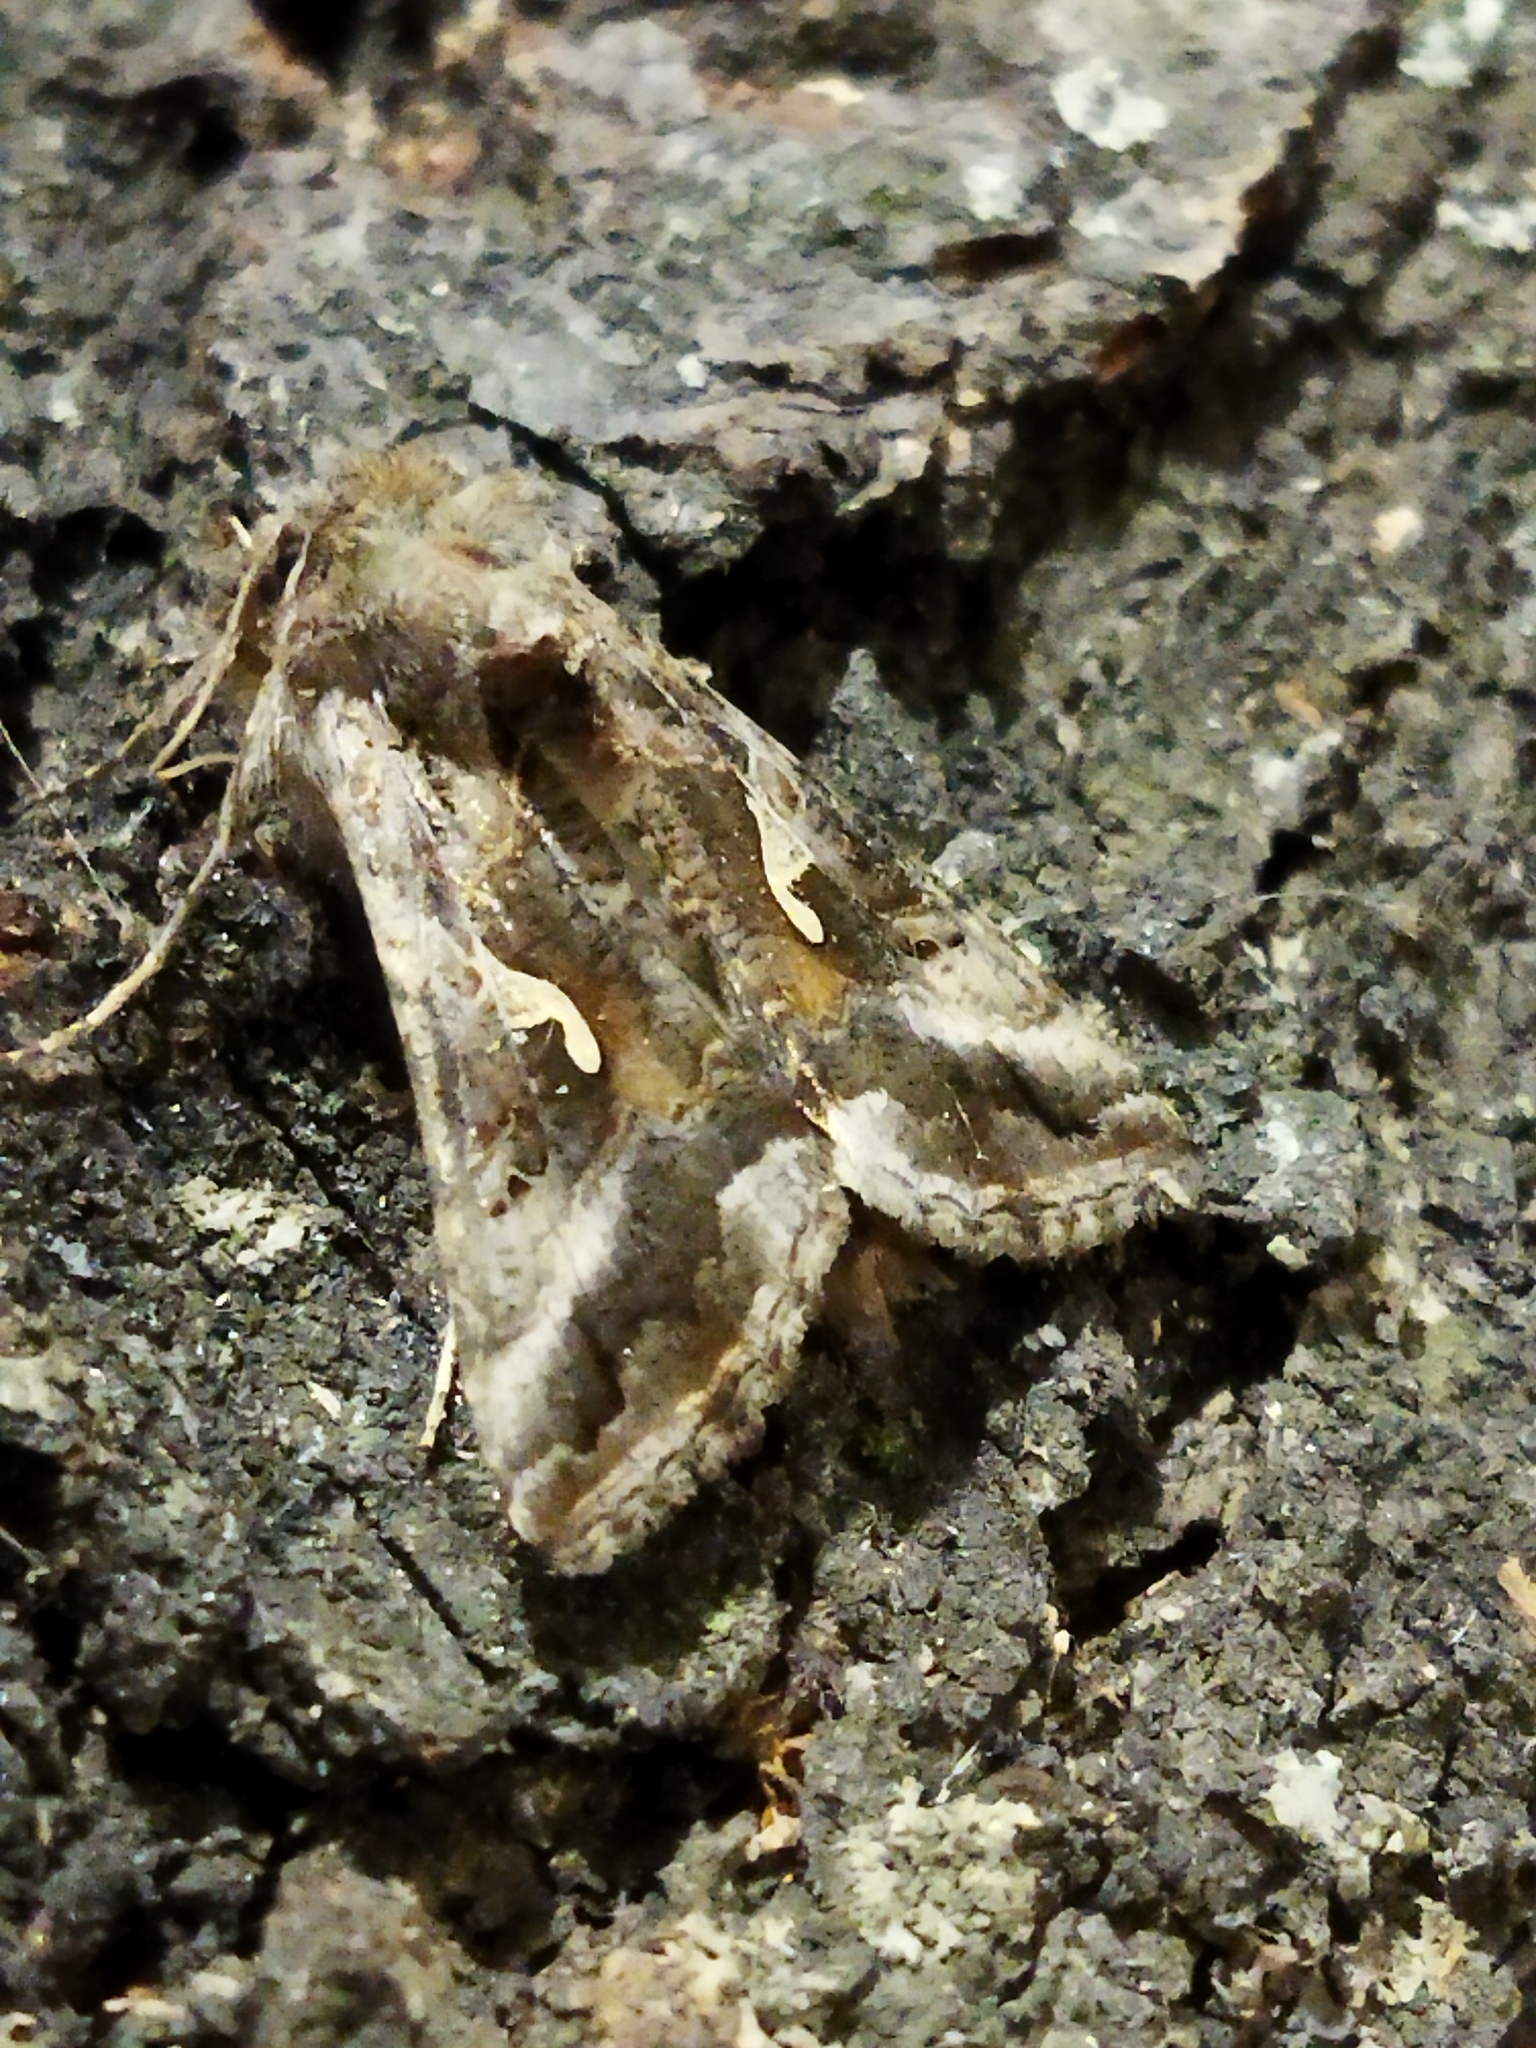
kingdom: Animalia
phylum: Arthropoda
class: Insecta
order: Lepidoptera
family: Noctuidae
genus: Autographa
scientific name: Autographa gamma
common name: Silver y
